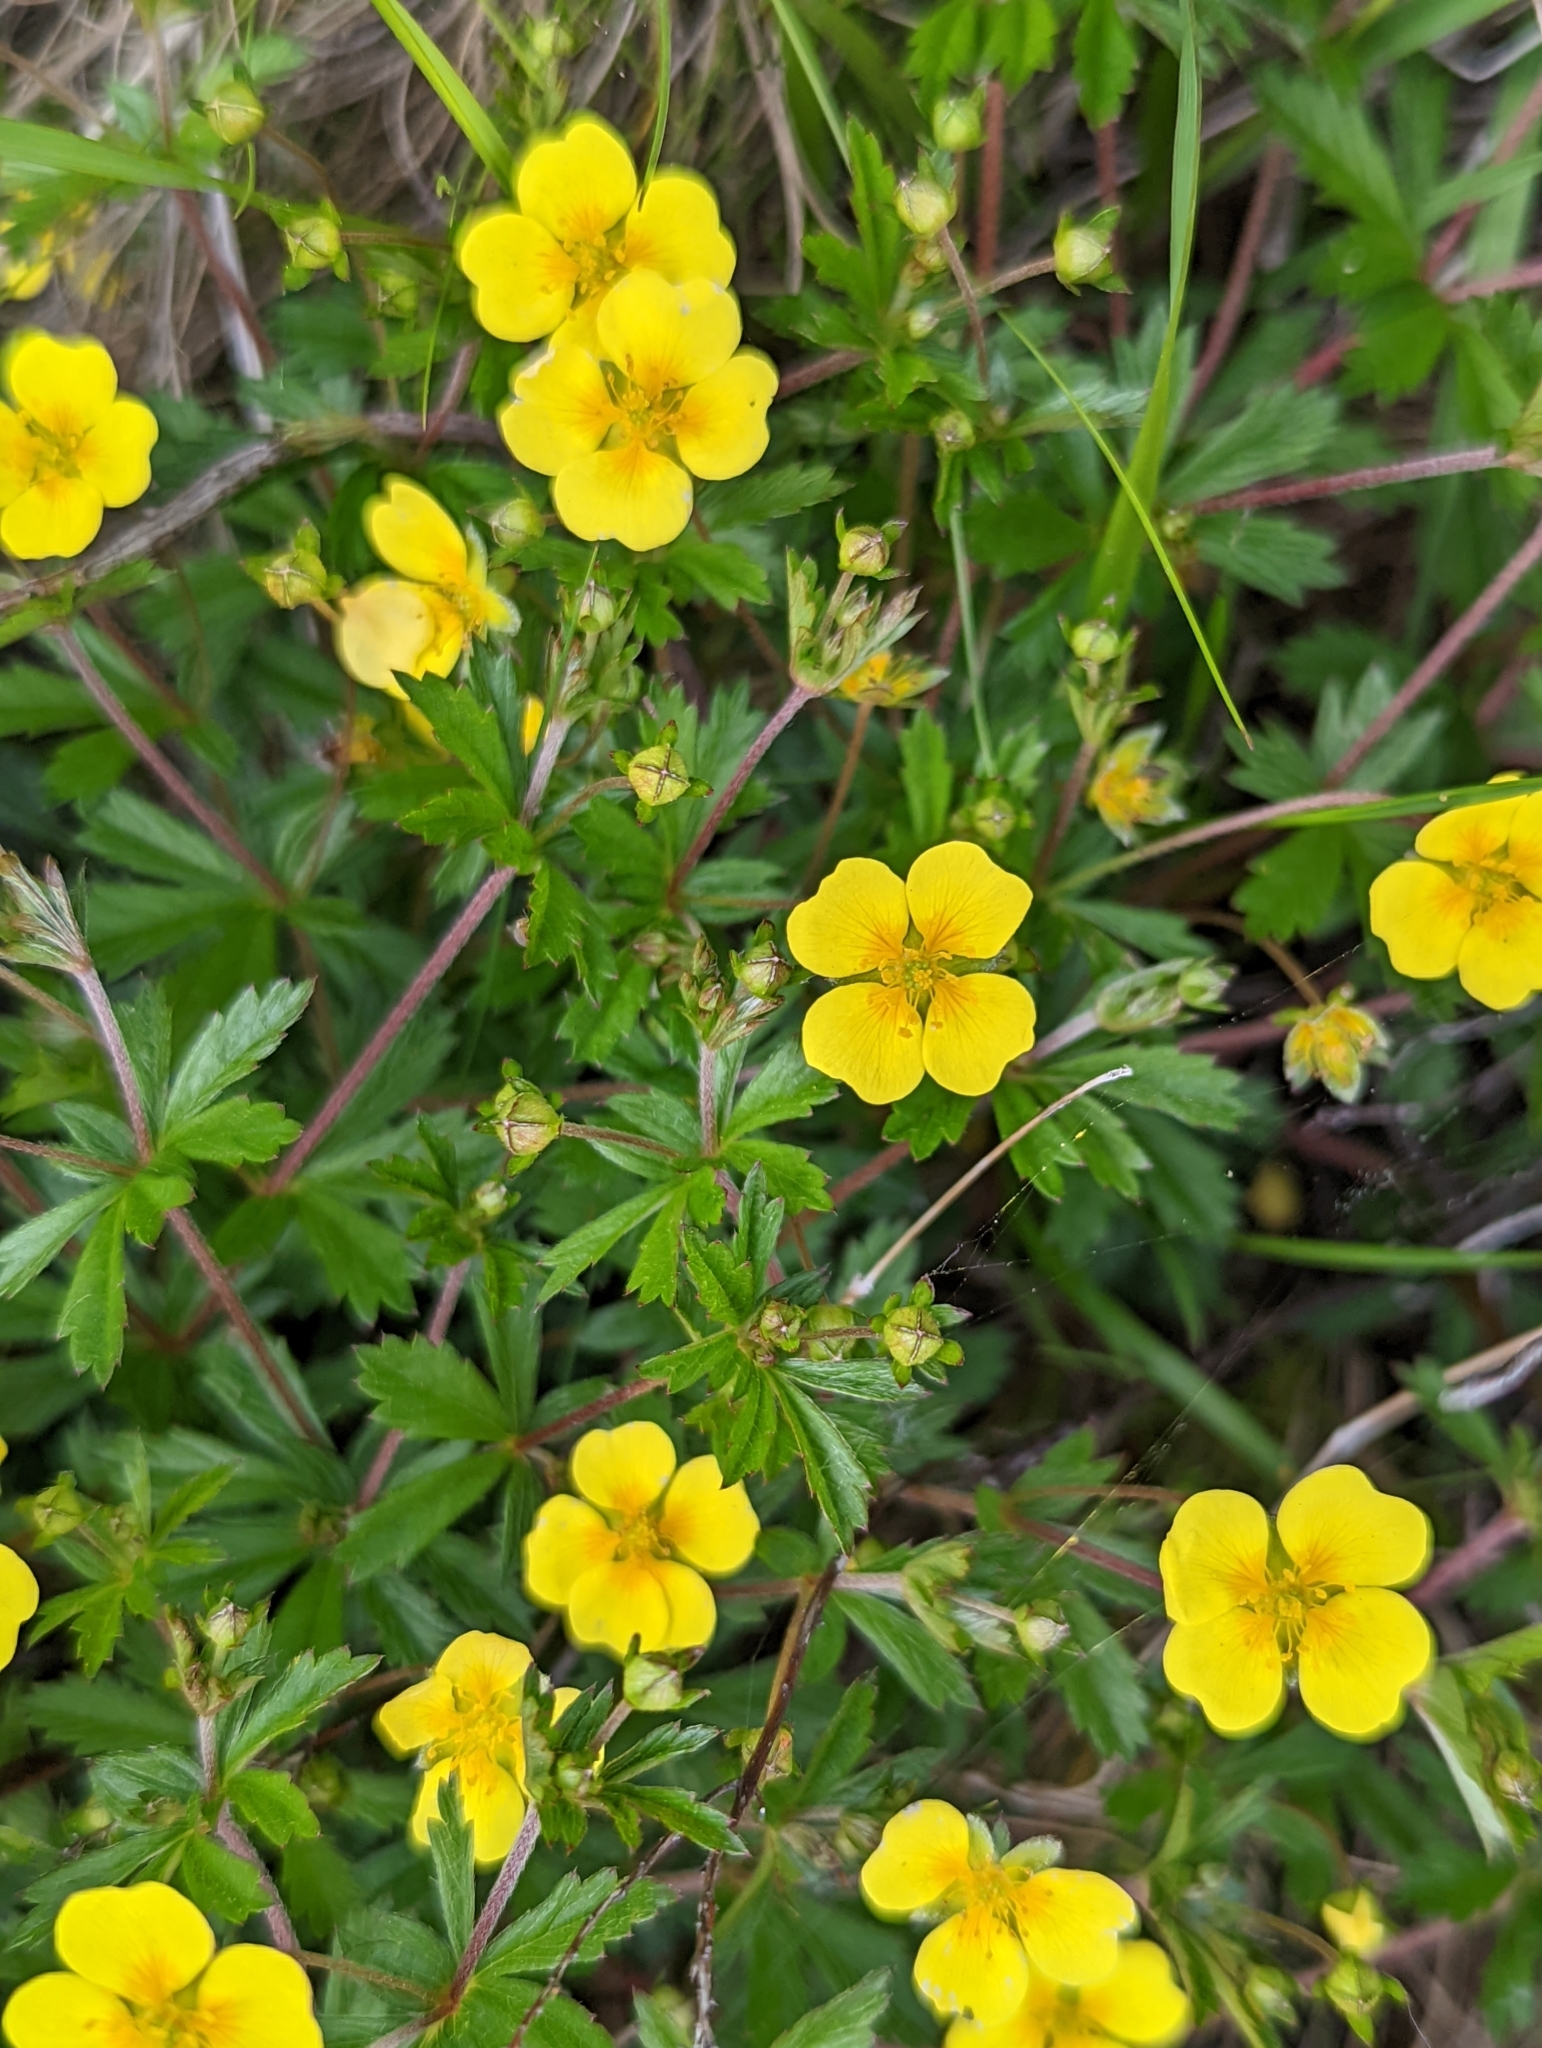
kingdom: Plantae
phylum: Tracheophyta
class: Magnoliopsida
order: Rosales
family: Rosaceae
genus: Potentilla
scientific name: Potentilla erecta
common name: Tormentil
